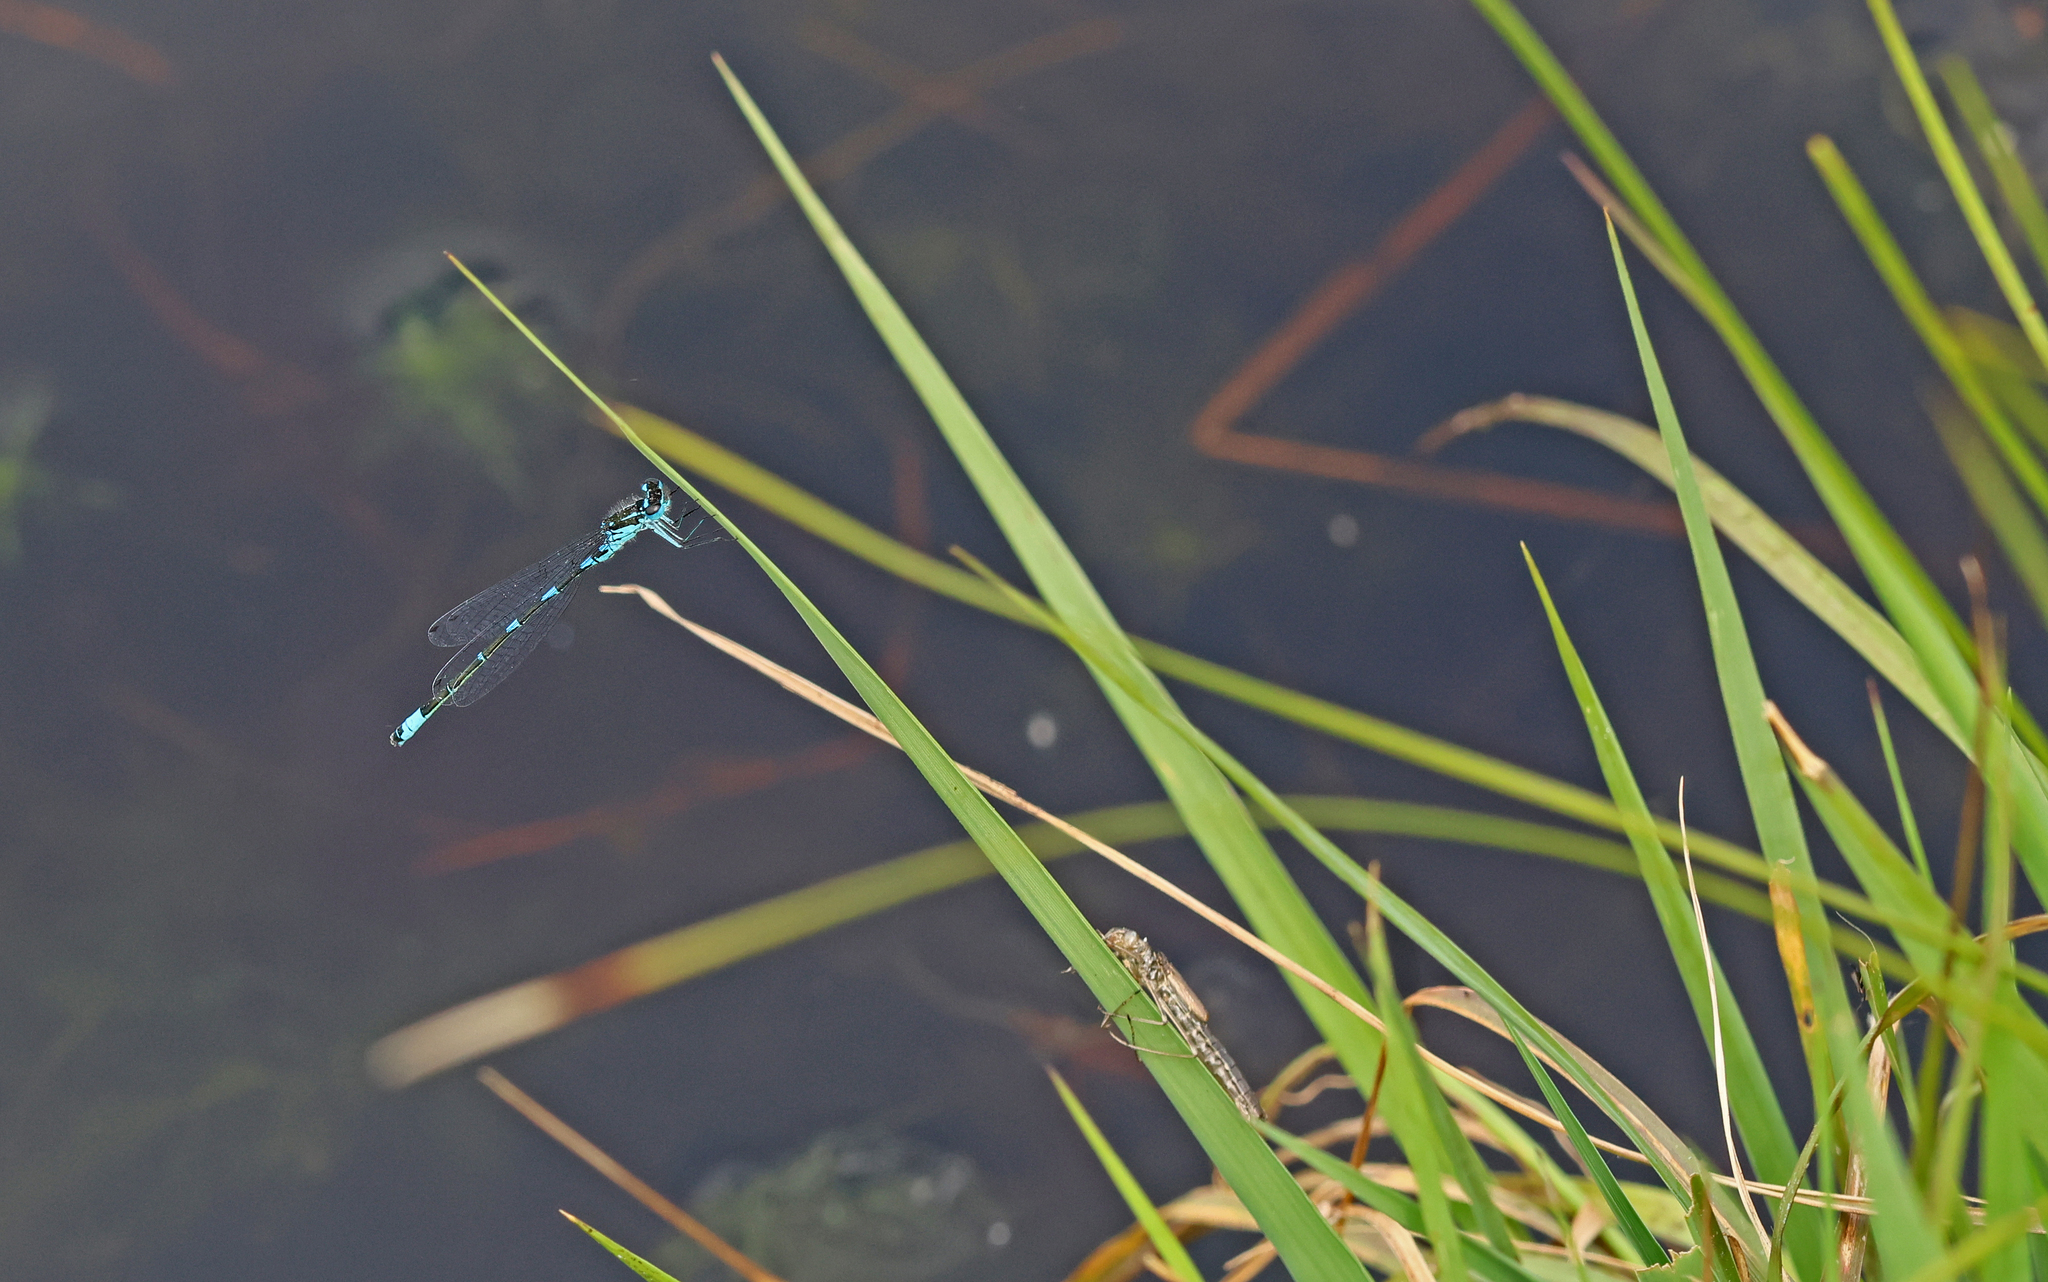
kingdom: Animalia
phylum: Arthropoda
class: Insecta
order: Odonata
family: Coenagrionidae
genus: Coenagrion
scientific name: Coenagrion pulchellum
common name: Variable bluet
